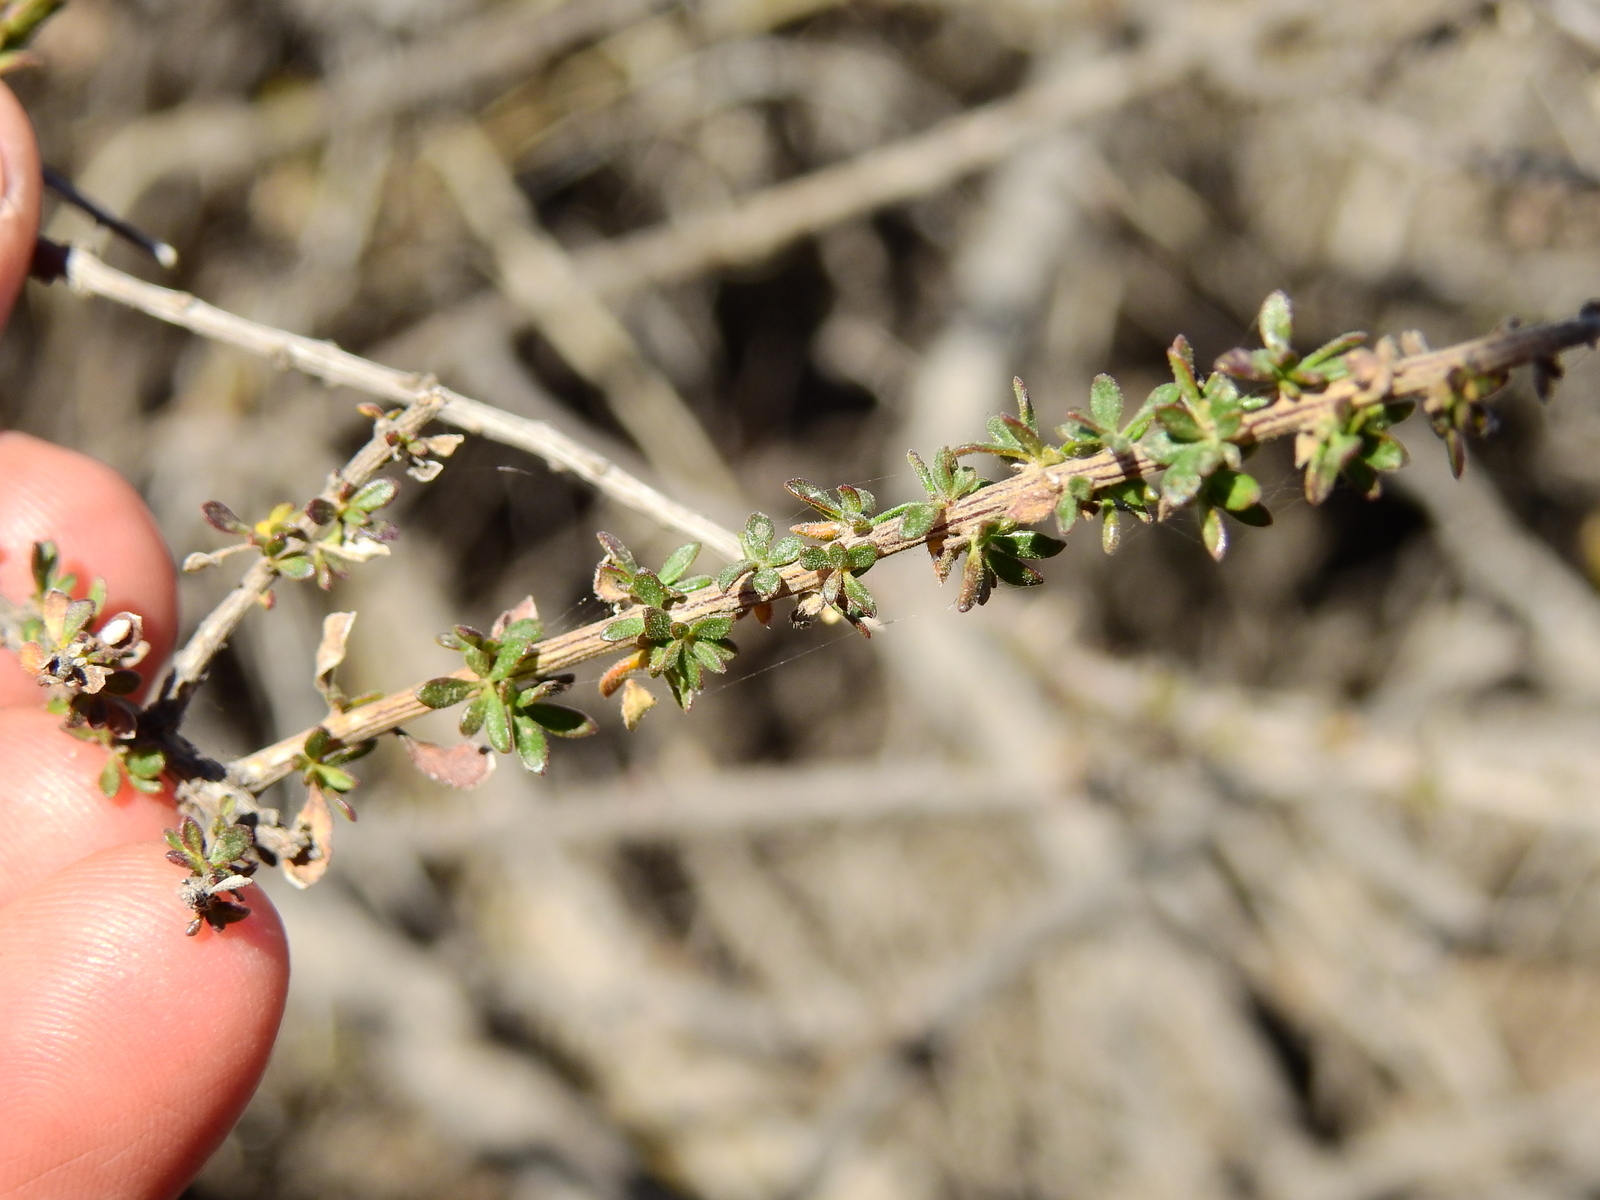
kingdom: Plantae
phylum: Tracheophyta
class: Magnoliopsida
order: Lamiales
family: Verbenaceae
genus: Mulguraea
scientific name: Mulguraea aspera
